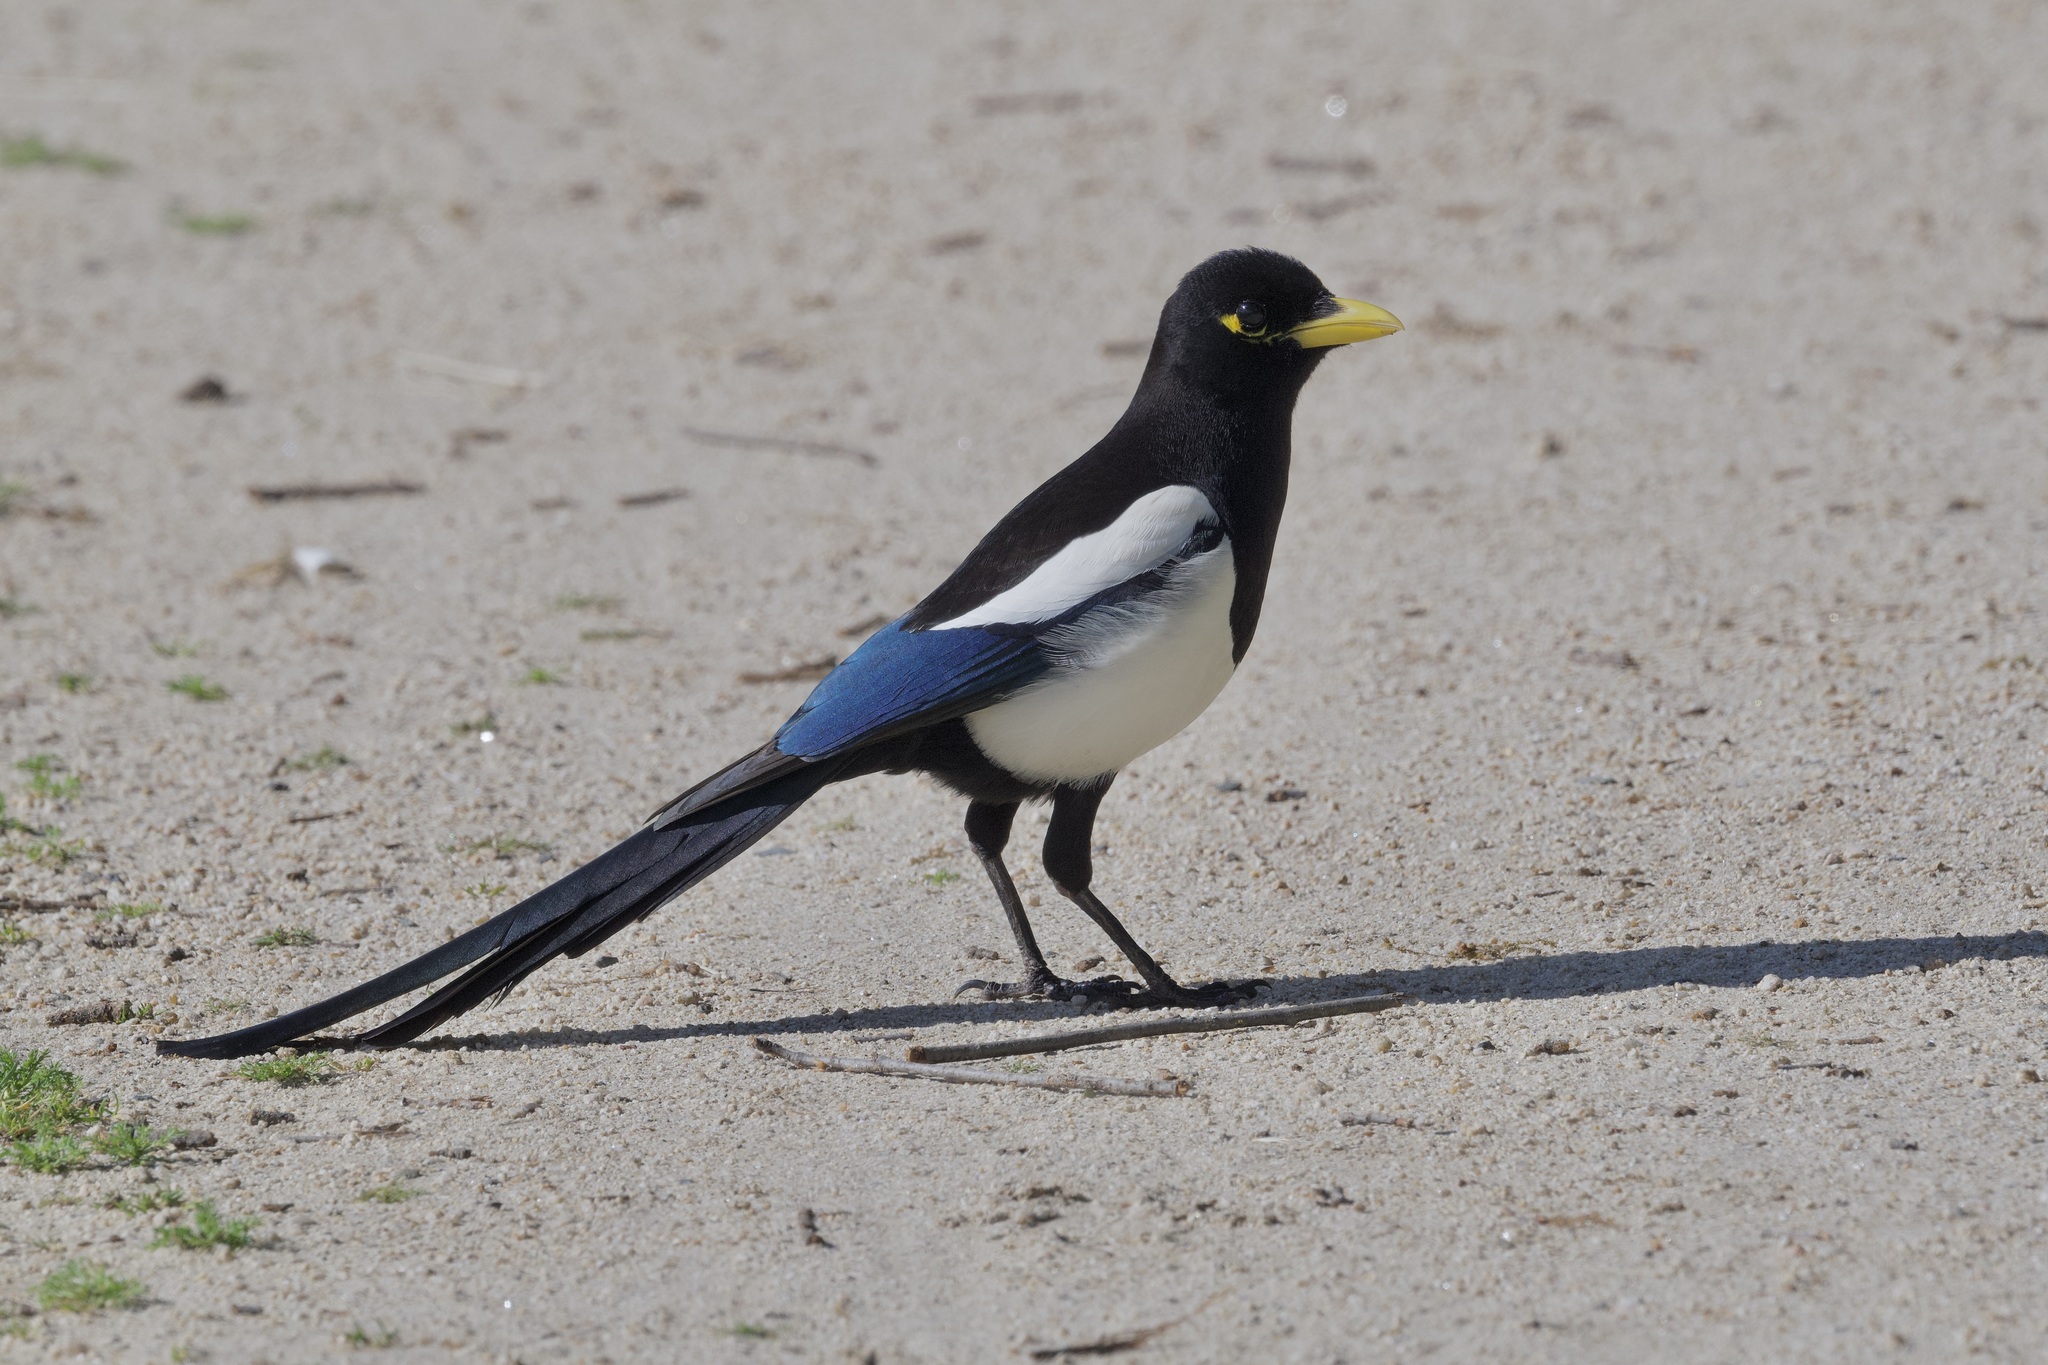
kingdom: Animalia
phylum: Chordata
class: Aves
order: Passeriformes
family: Corvidae
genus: Pica
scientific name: Pica nuttalli
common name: Yellow-billed magpie
